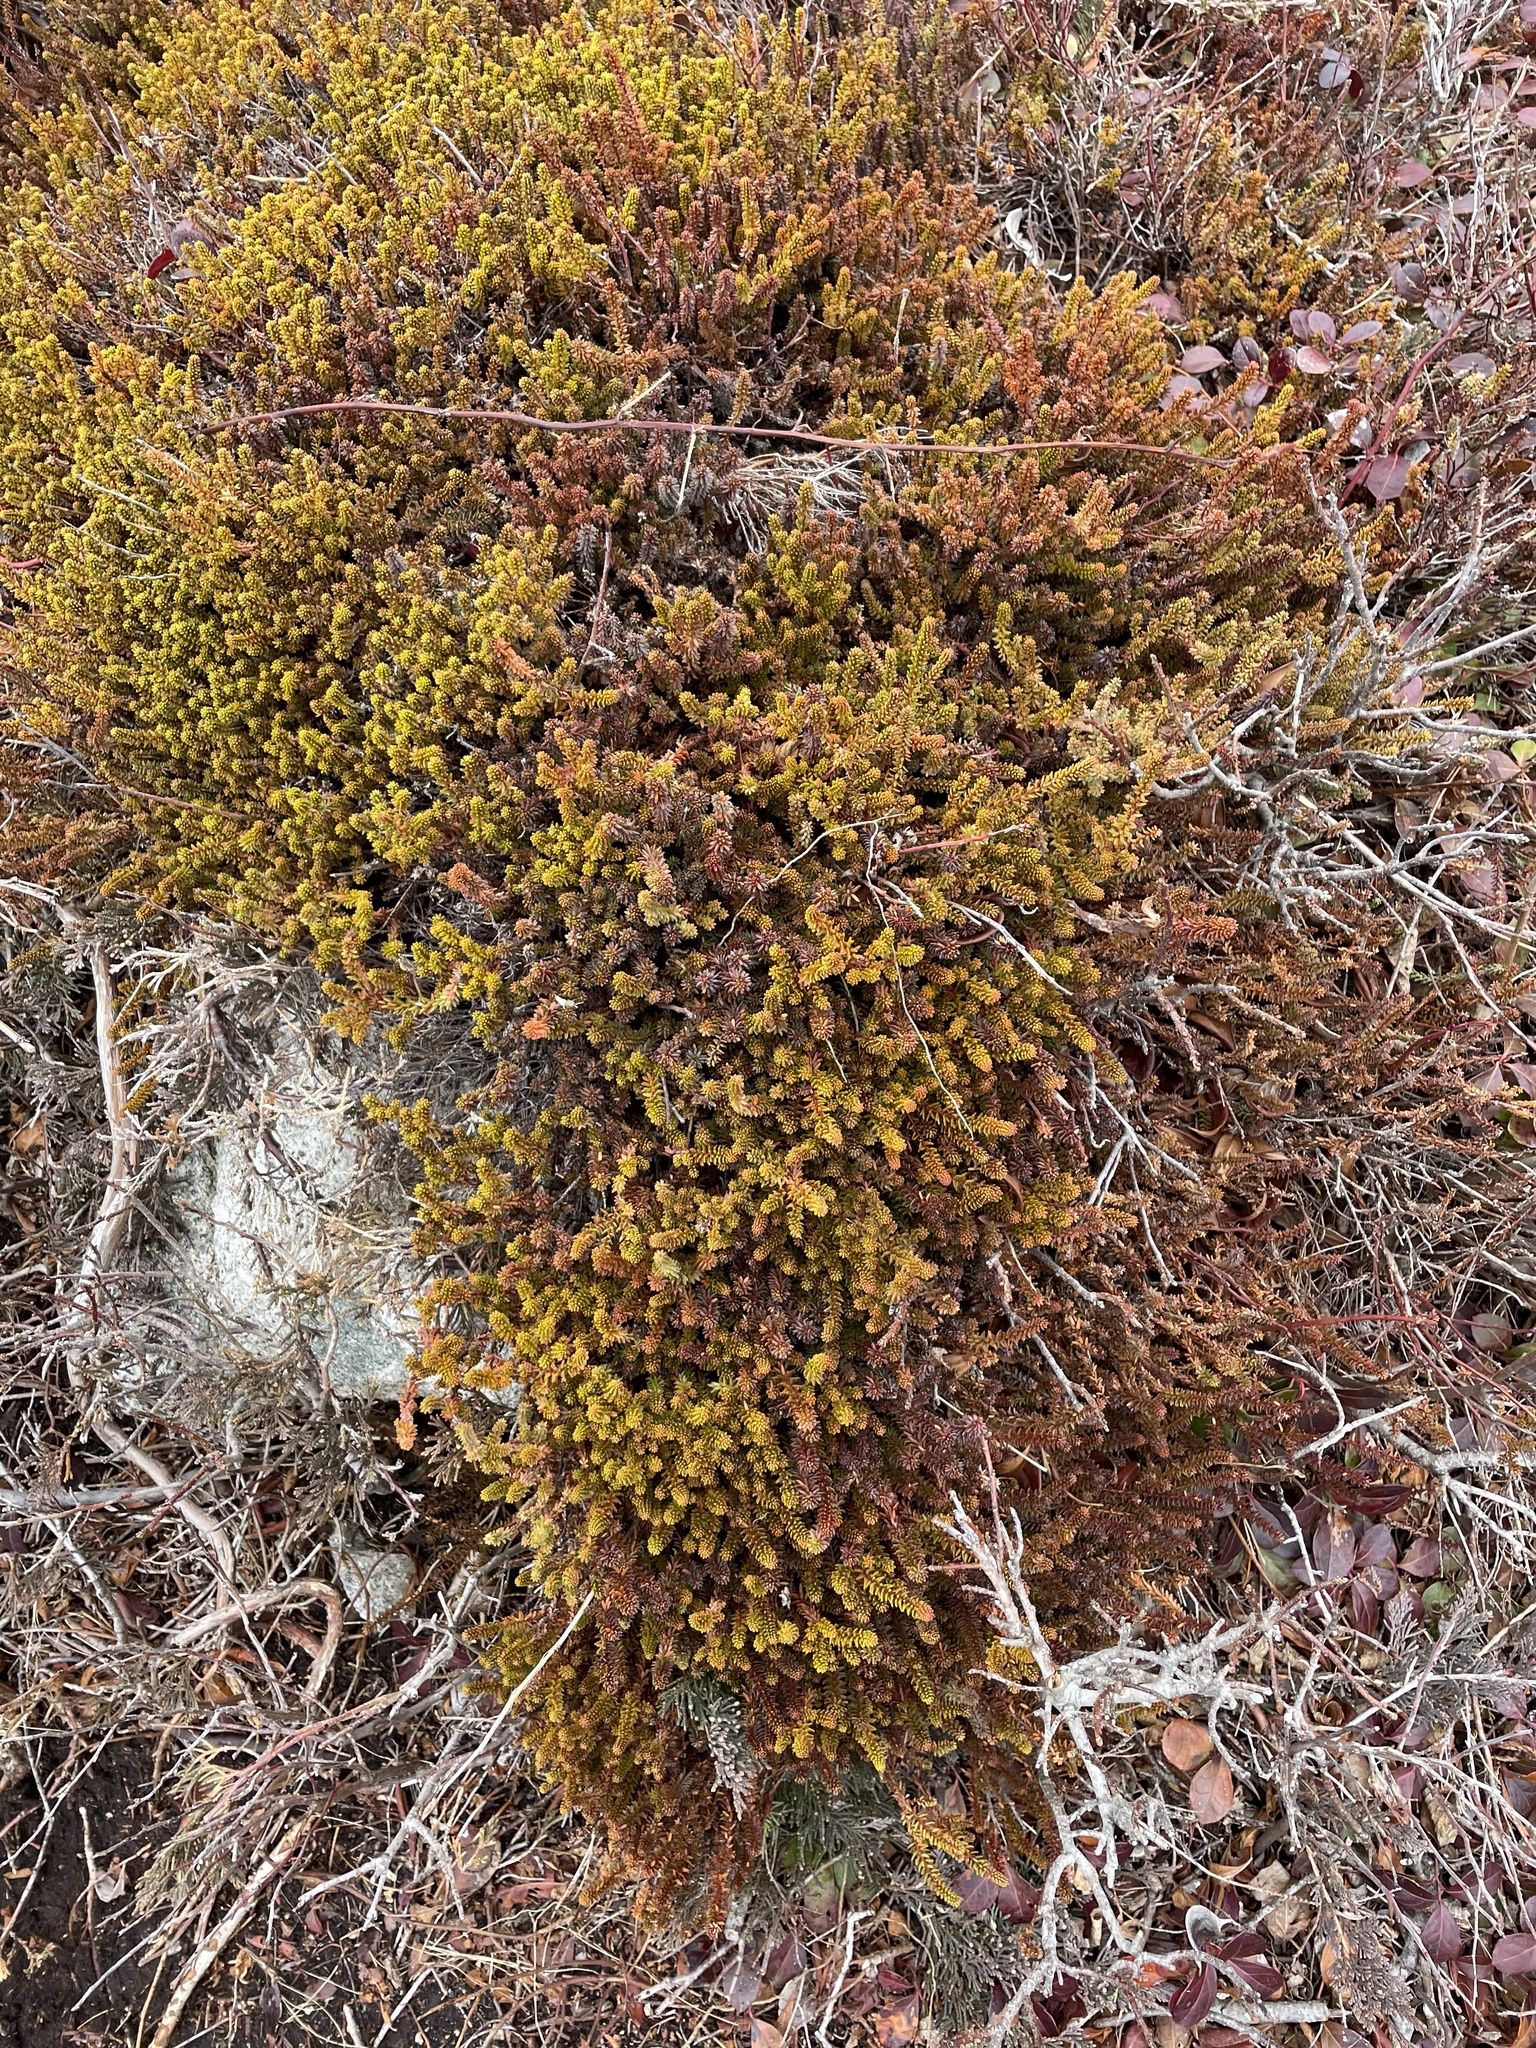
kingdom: Plantae
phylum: Tracheophyta
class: Magnoliopsida
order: Ericales
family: Ericaceae
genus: Empetrum
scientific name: Empetrum nigrum
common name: Black crowberry
